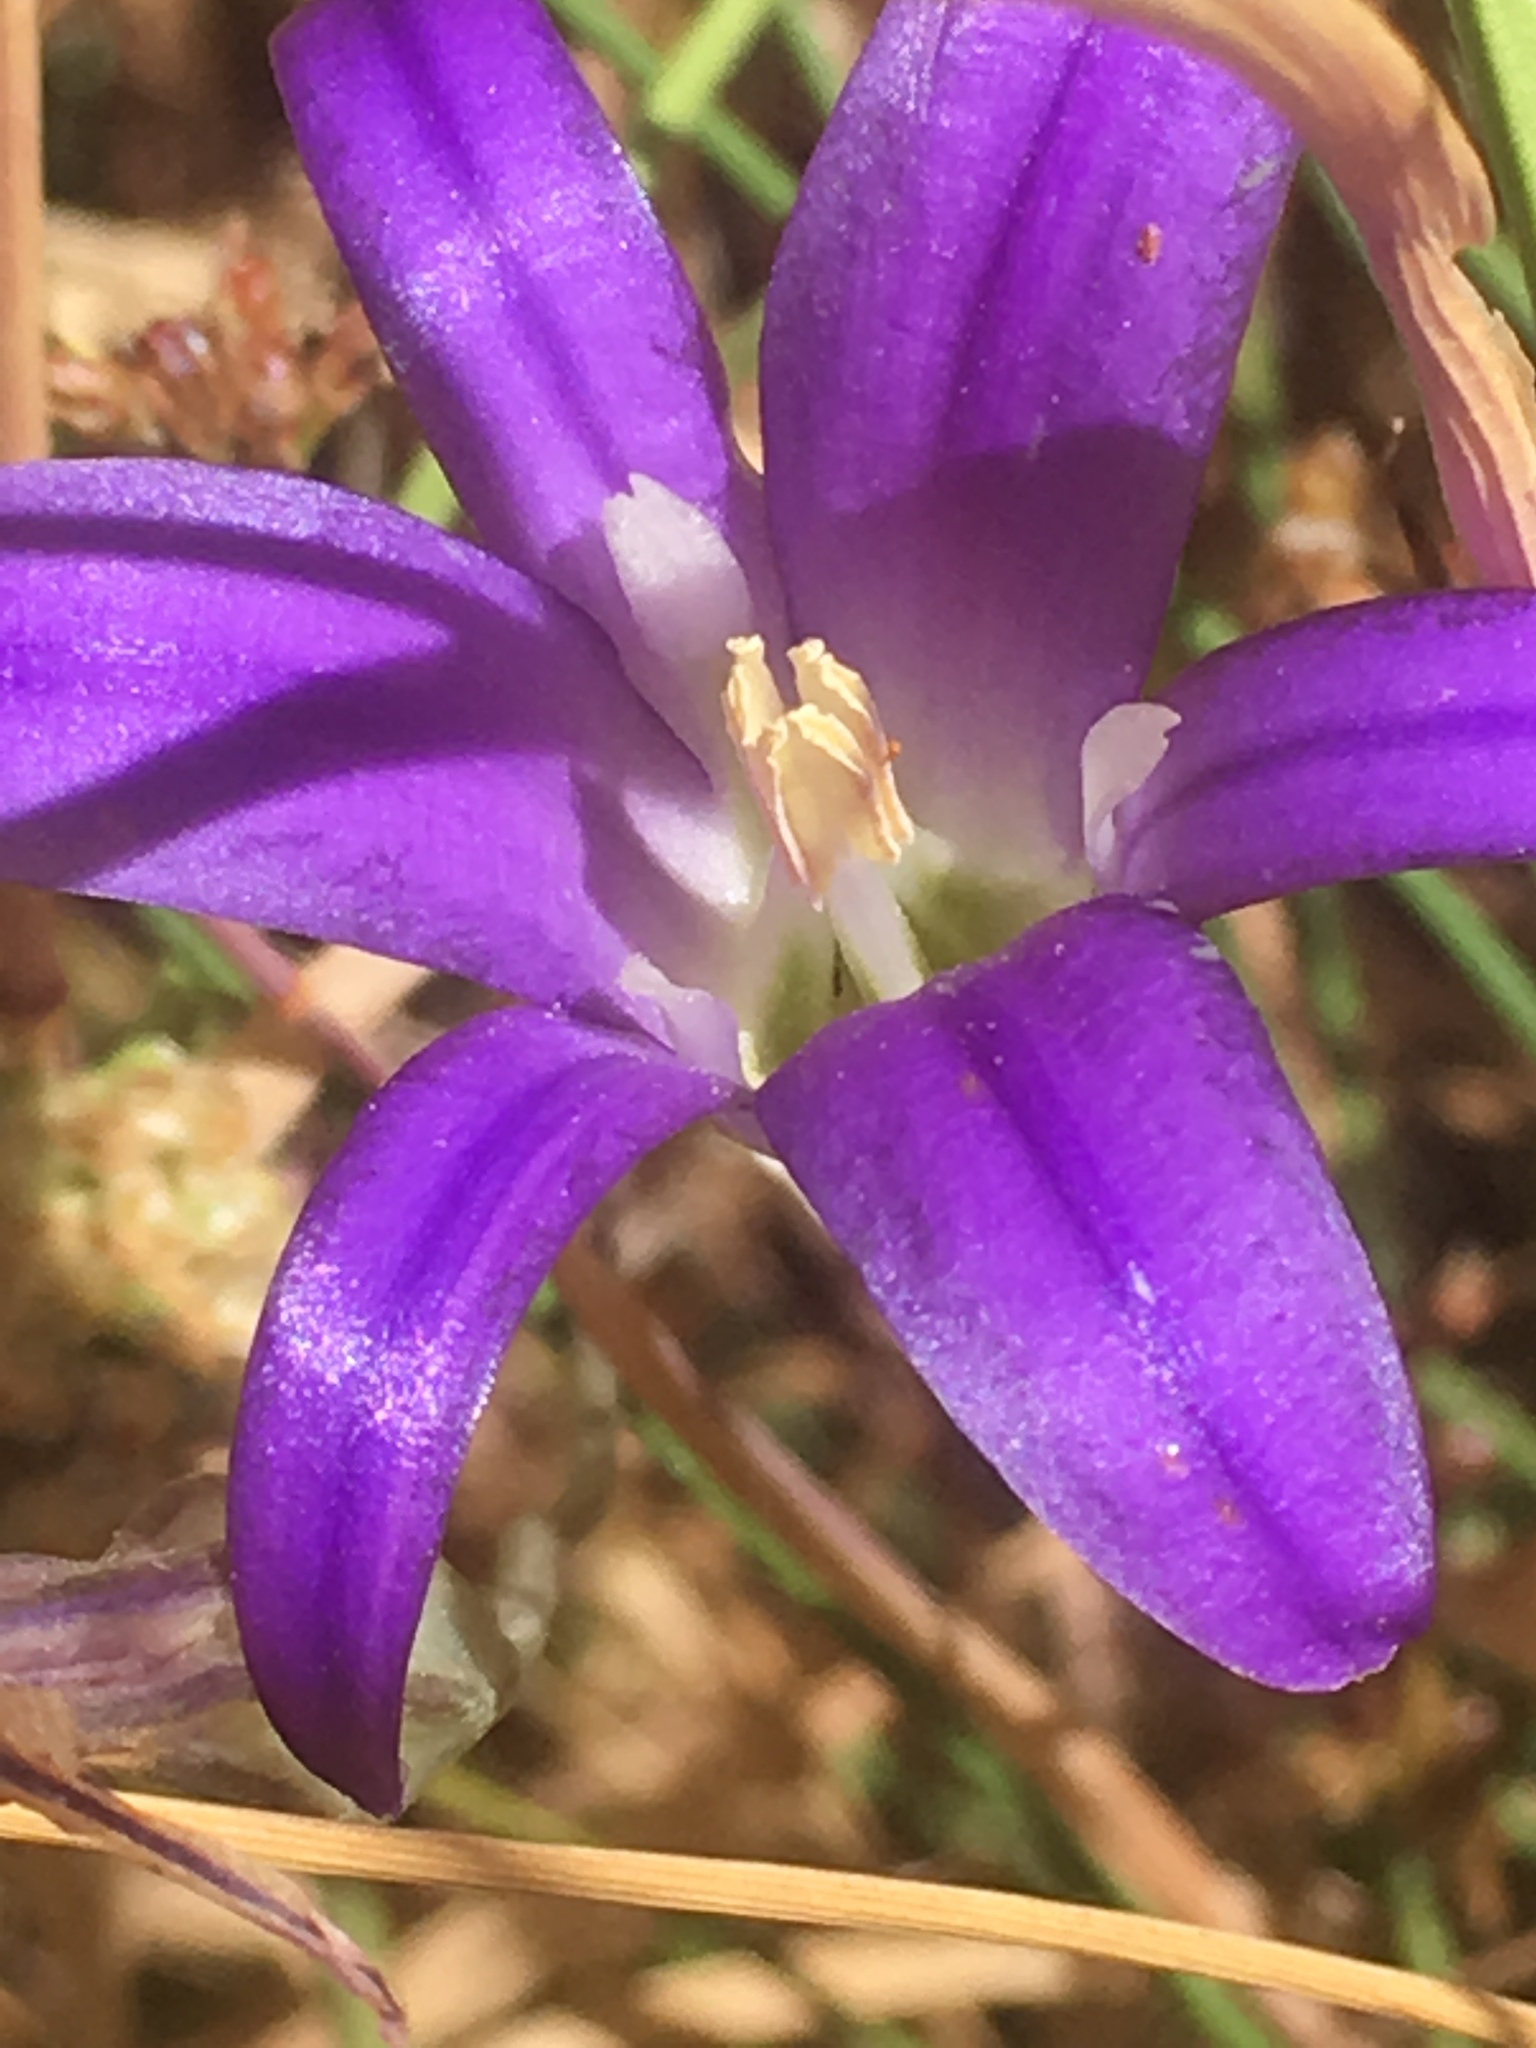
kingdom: Plantae
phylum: Tracheophyta
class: Liliopsida
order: Asparagales
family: Asparagaceae
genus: Brodiaea
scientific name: Brodiaea elegans
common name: Elegant cluster-lily
